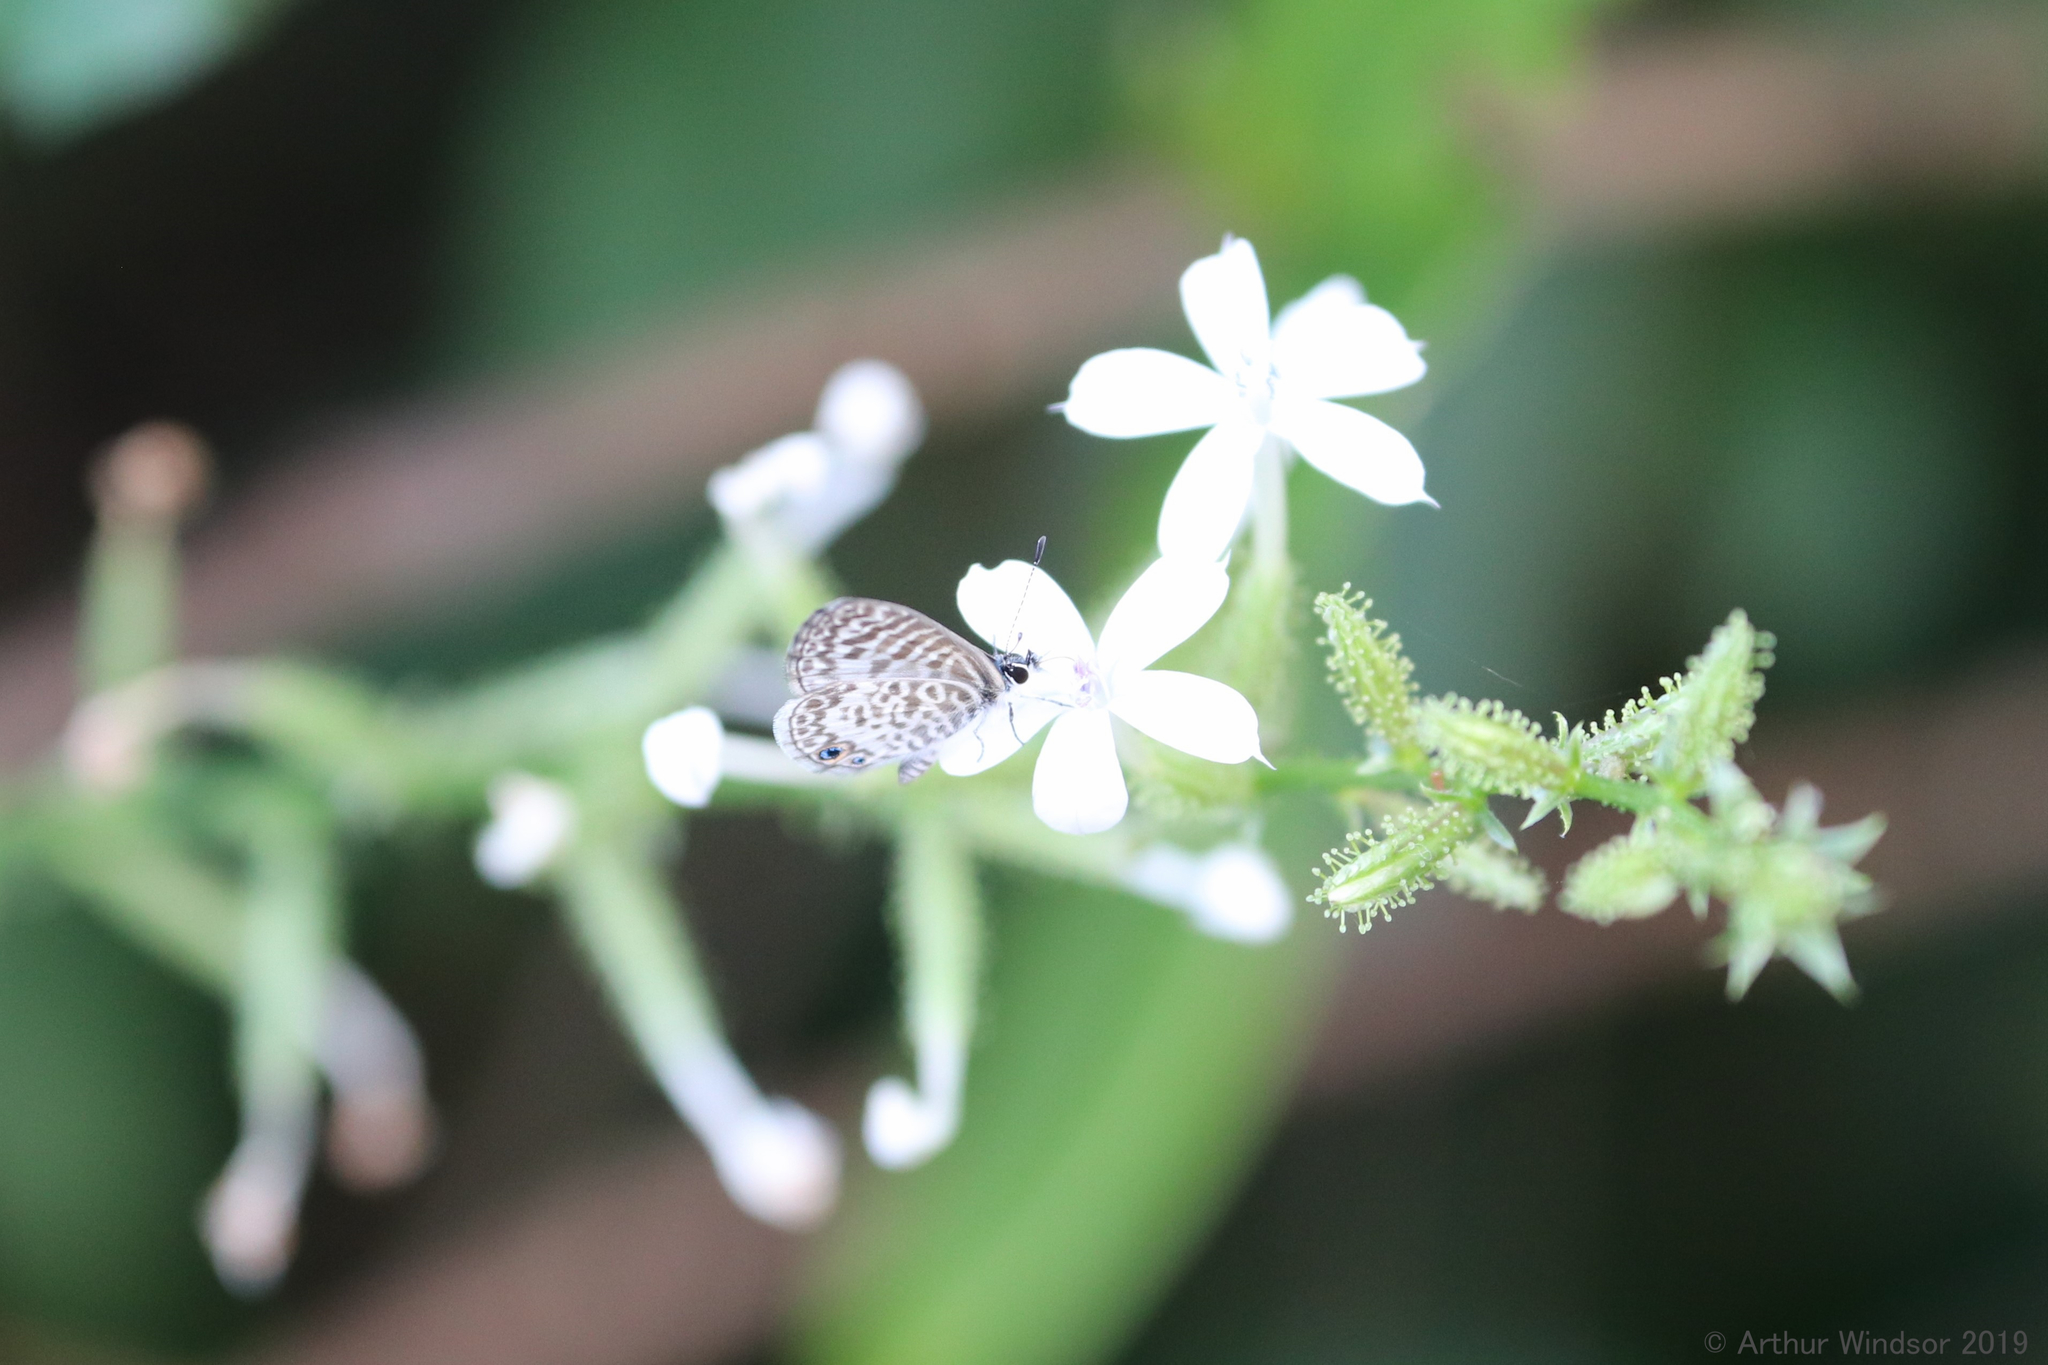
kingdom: Animalia
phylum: Arthropoda
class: Insecta
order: Lepidoptera
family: Lycaenidae
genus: Leptotes
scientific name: Leptotes cassius
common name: Cassius blue
